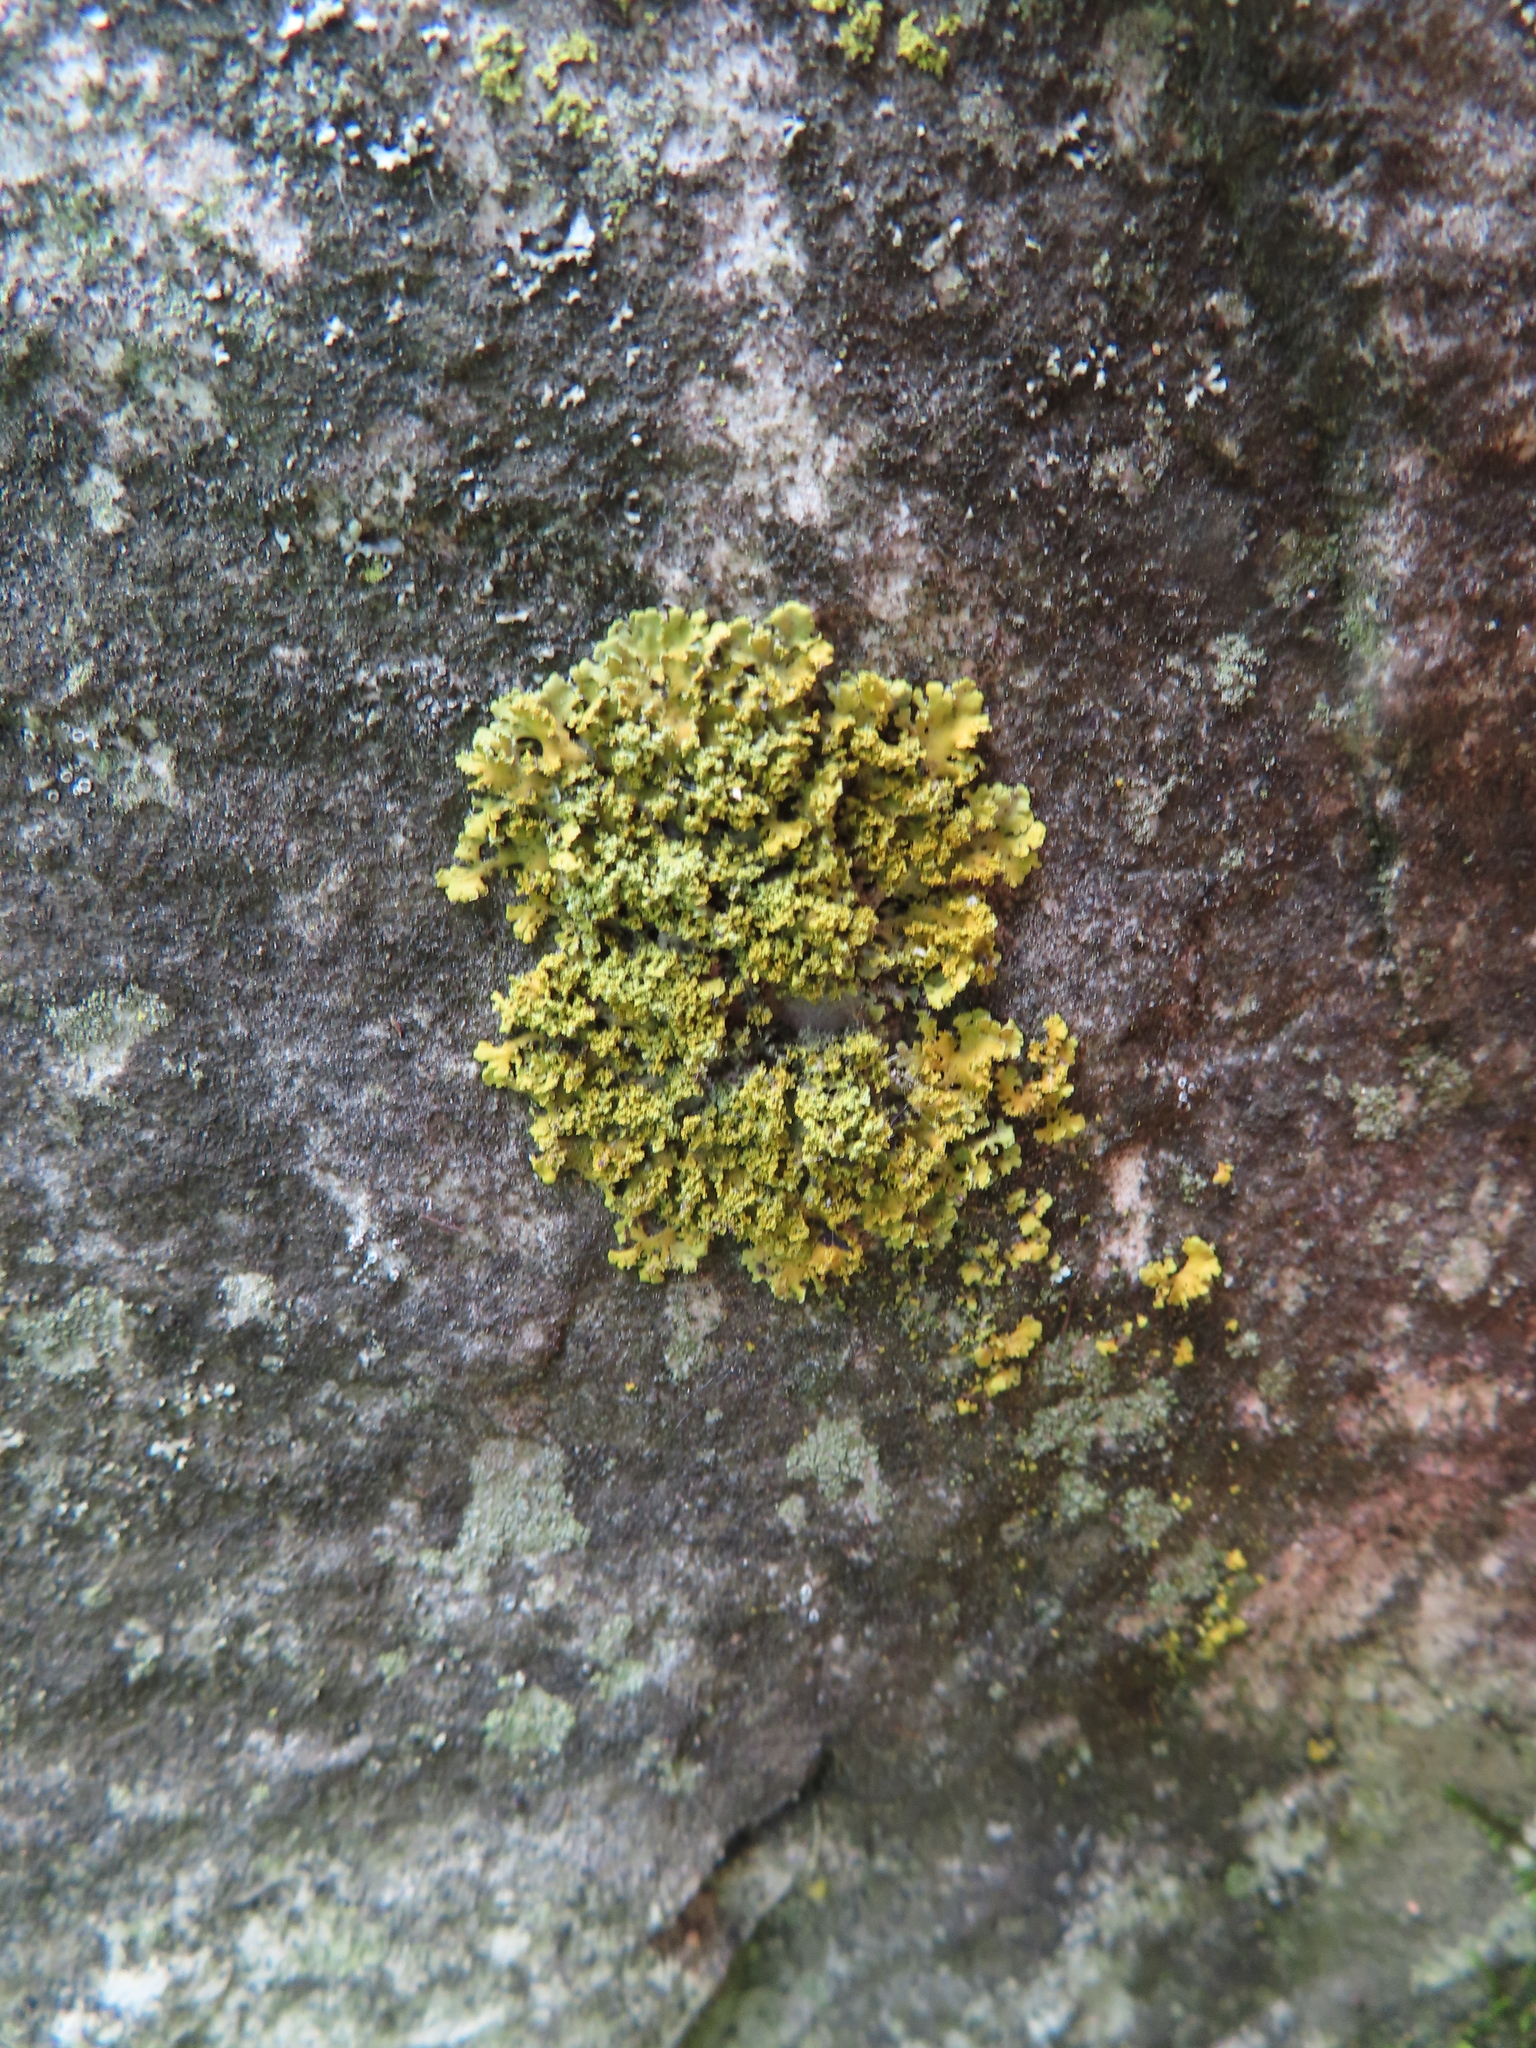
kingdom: Fungi
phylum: Ascomycota
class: Lecanoromycetes
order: Teloschistales
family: Teloschistaceae
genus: Xanthoria
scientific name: Xanthoria ulophyllodes
